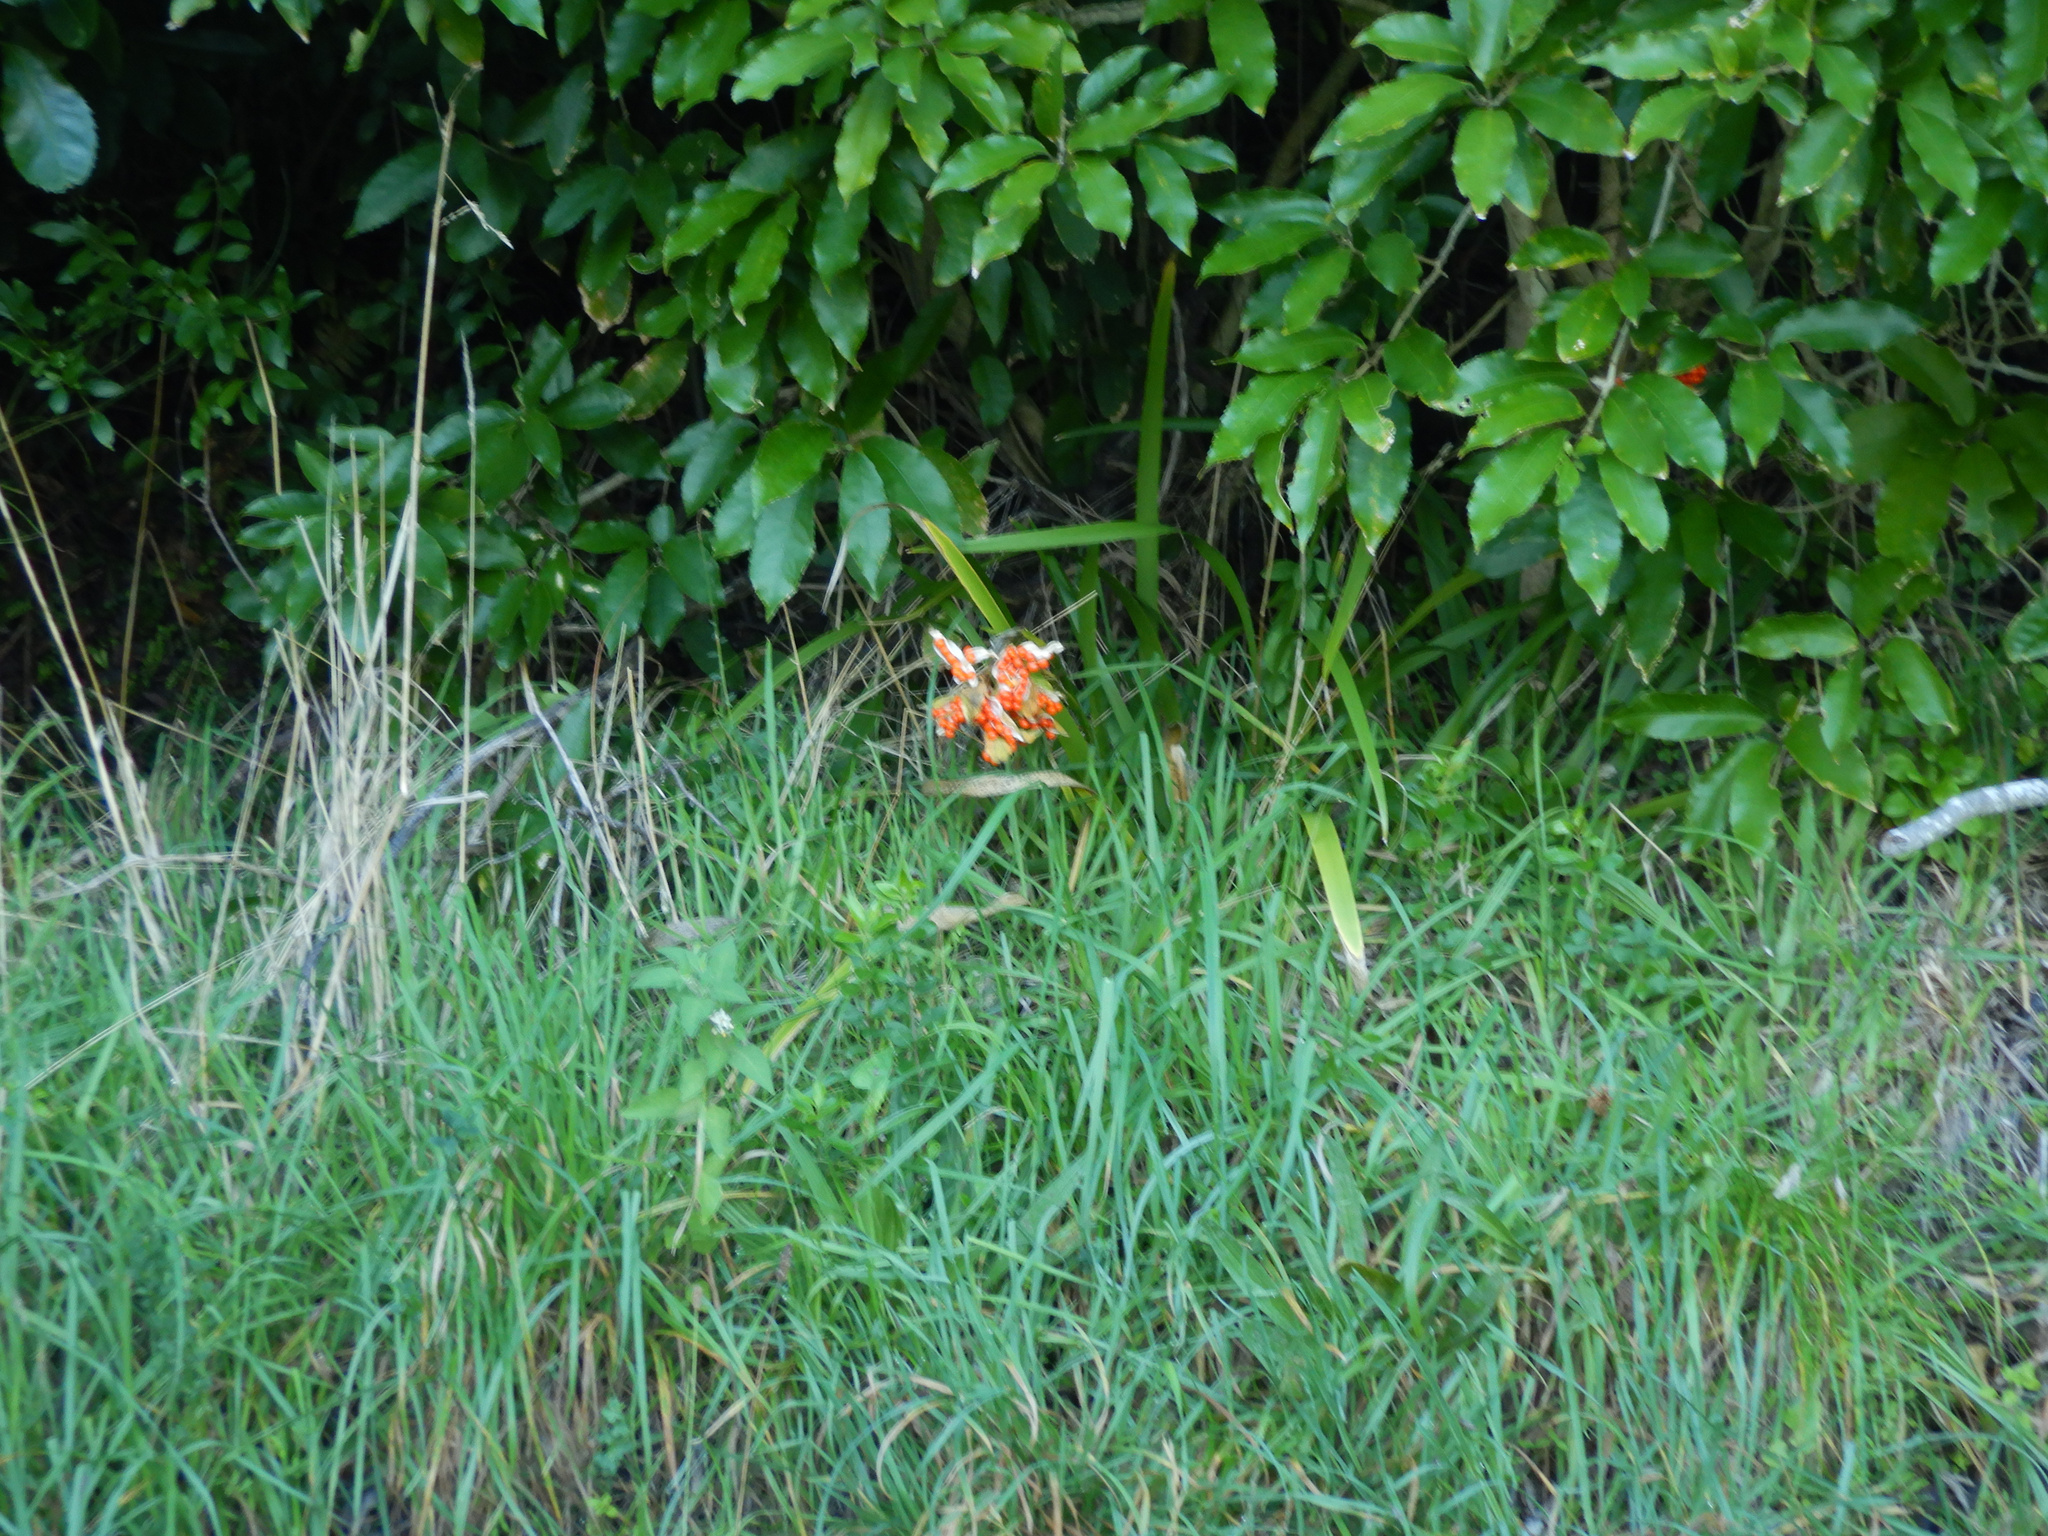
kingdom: Plantae
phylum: Tracheophyta
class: Liliopsida
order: Asparagales
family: Iridaceae
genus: Iris
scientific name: Iris foetidissima
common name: Stinking iris
